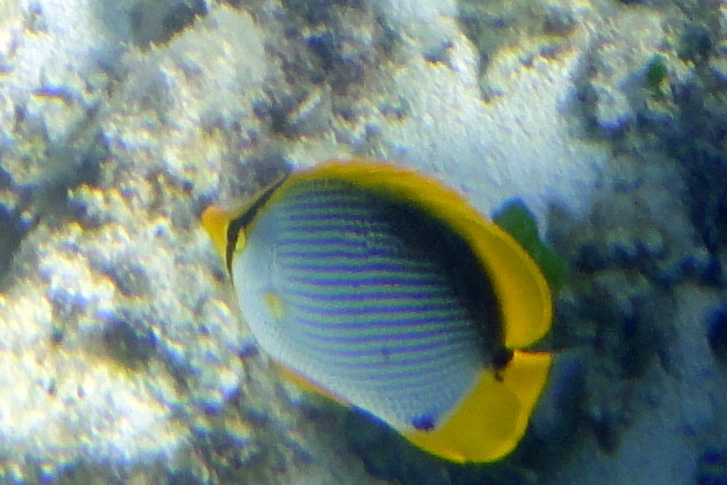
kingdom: Animalia
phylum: Chordata
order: Perciformes
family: Chaetodontidae
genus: Chaetodon
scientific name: Chaetodon melannotus
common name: Blackback butterflyfish
